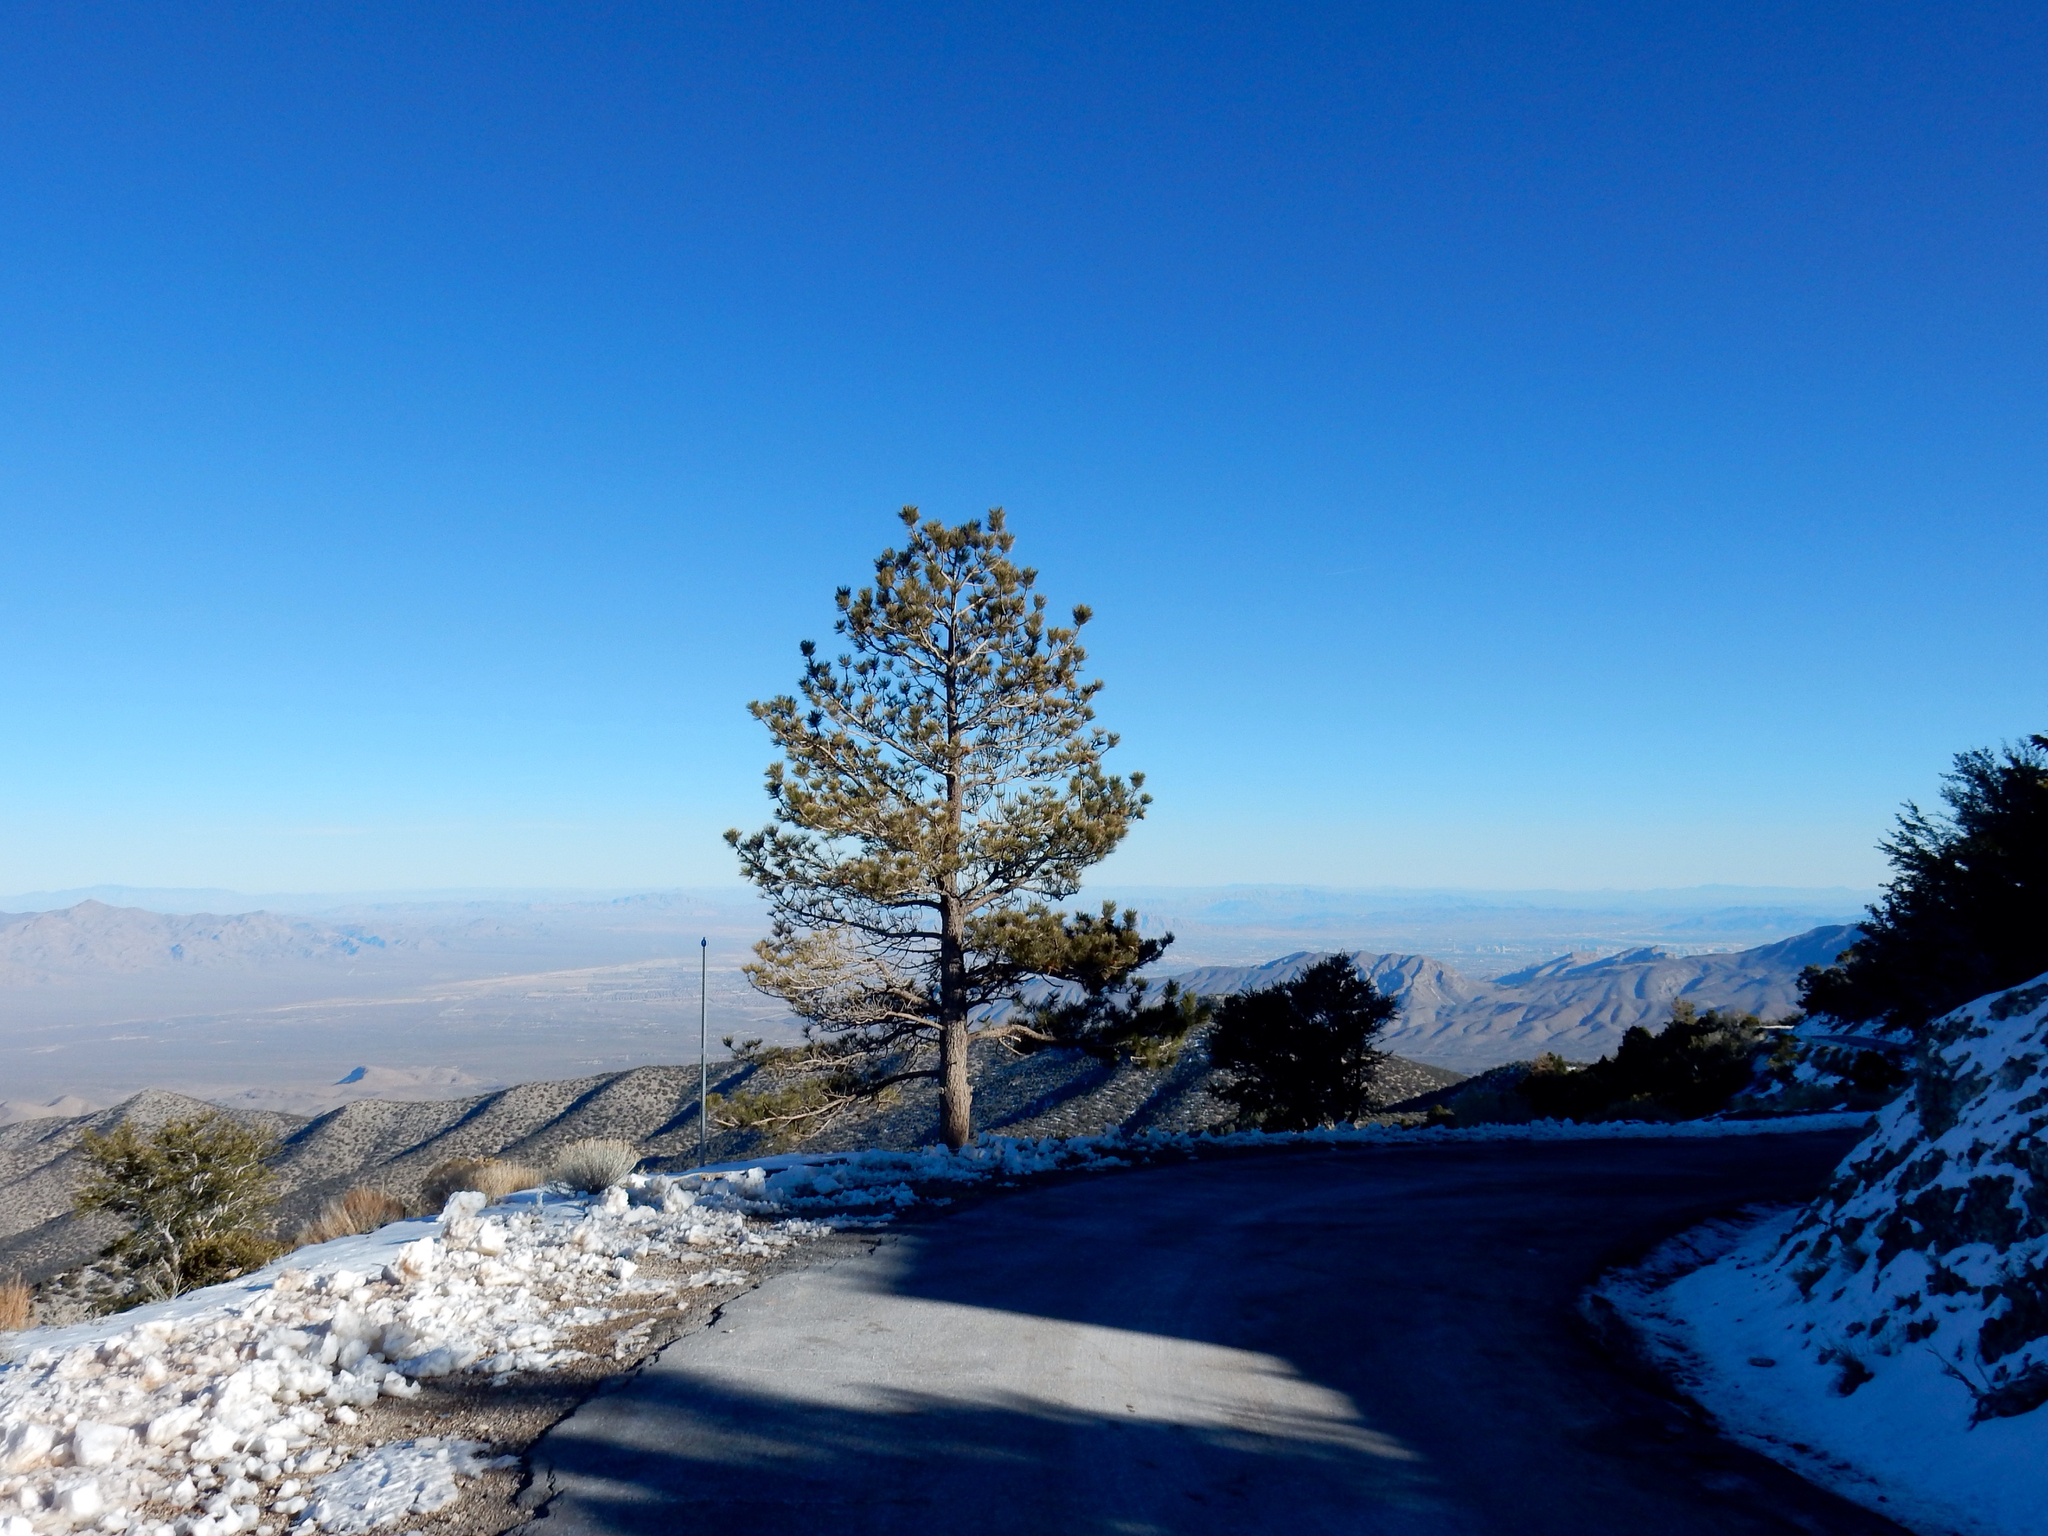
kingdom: Plantae
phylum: Tracheophyta
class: Pinopsida
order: Pinales
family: Pinaceae
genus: Pinus
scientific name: Pinus ponderosa
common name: Western yellow-pine
